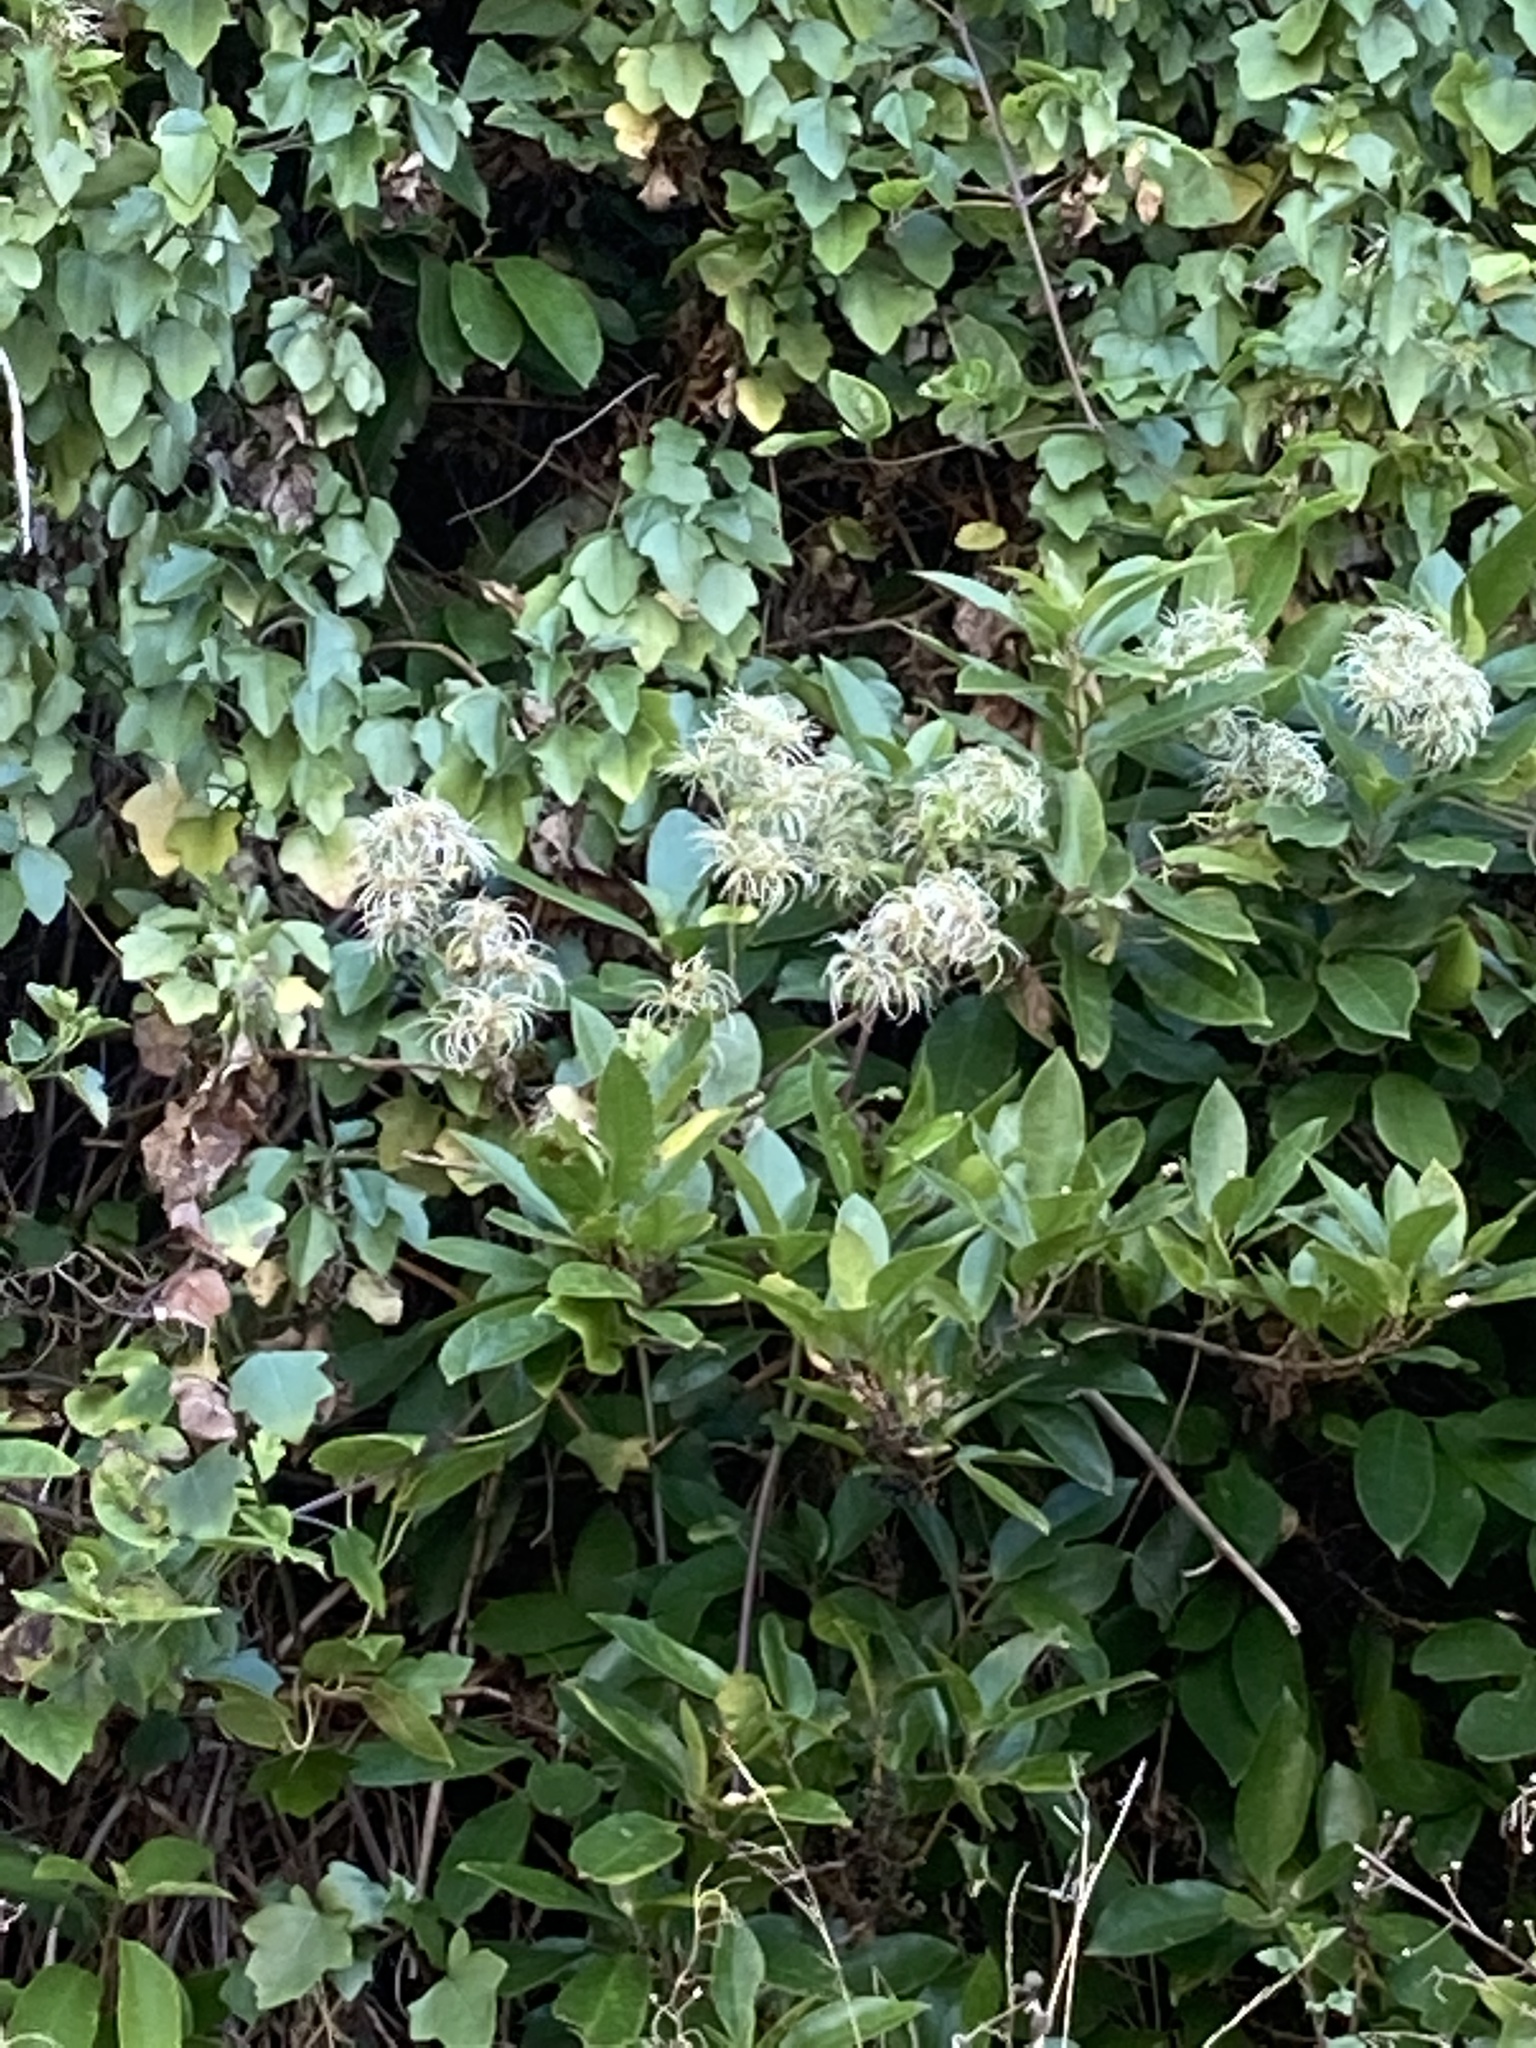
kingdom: Plantae
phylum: Tracheophyta
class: Magnoliopsida
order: Ranunculales
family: Ranunculaceae
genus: Clematis
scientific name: Clematis vitalba
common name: Evergreen clematis
